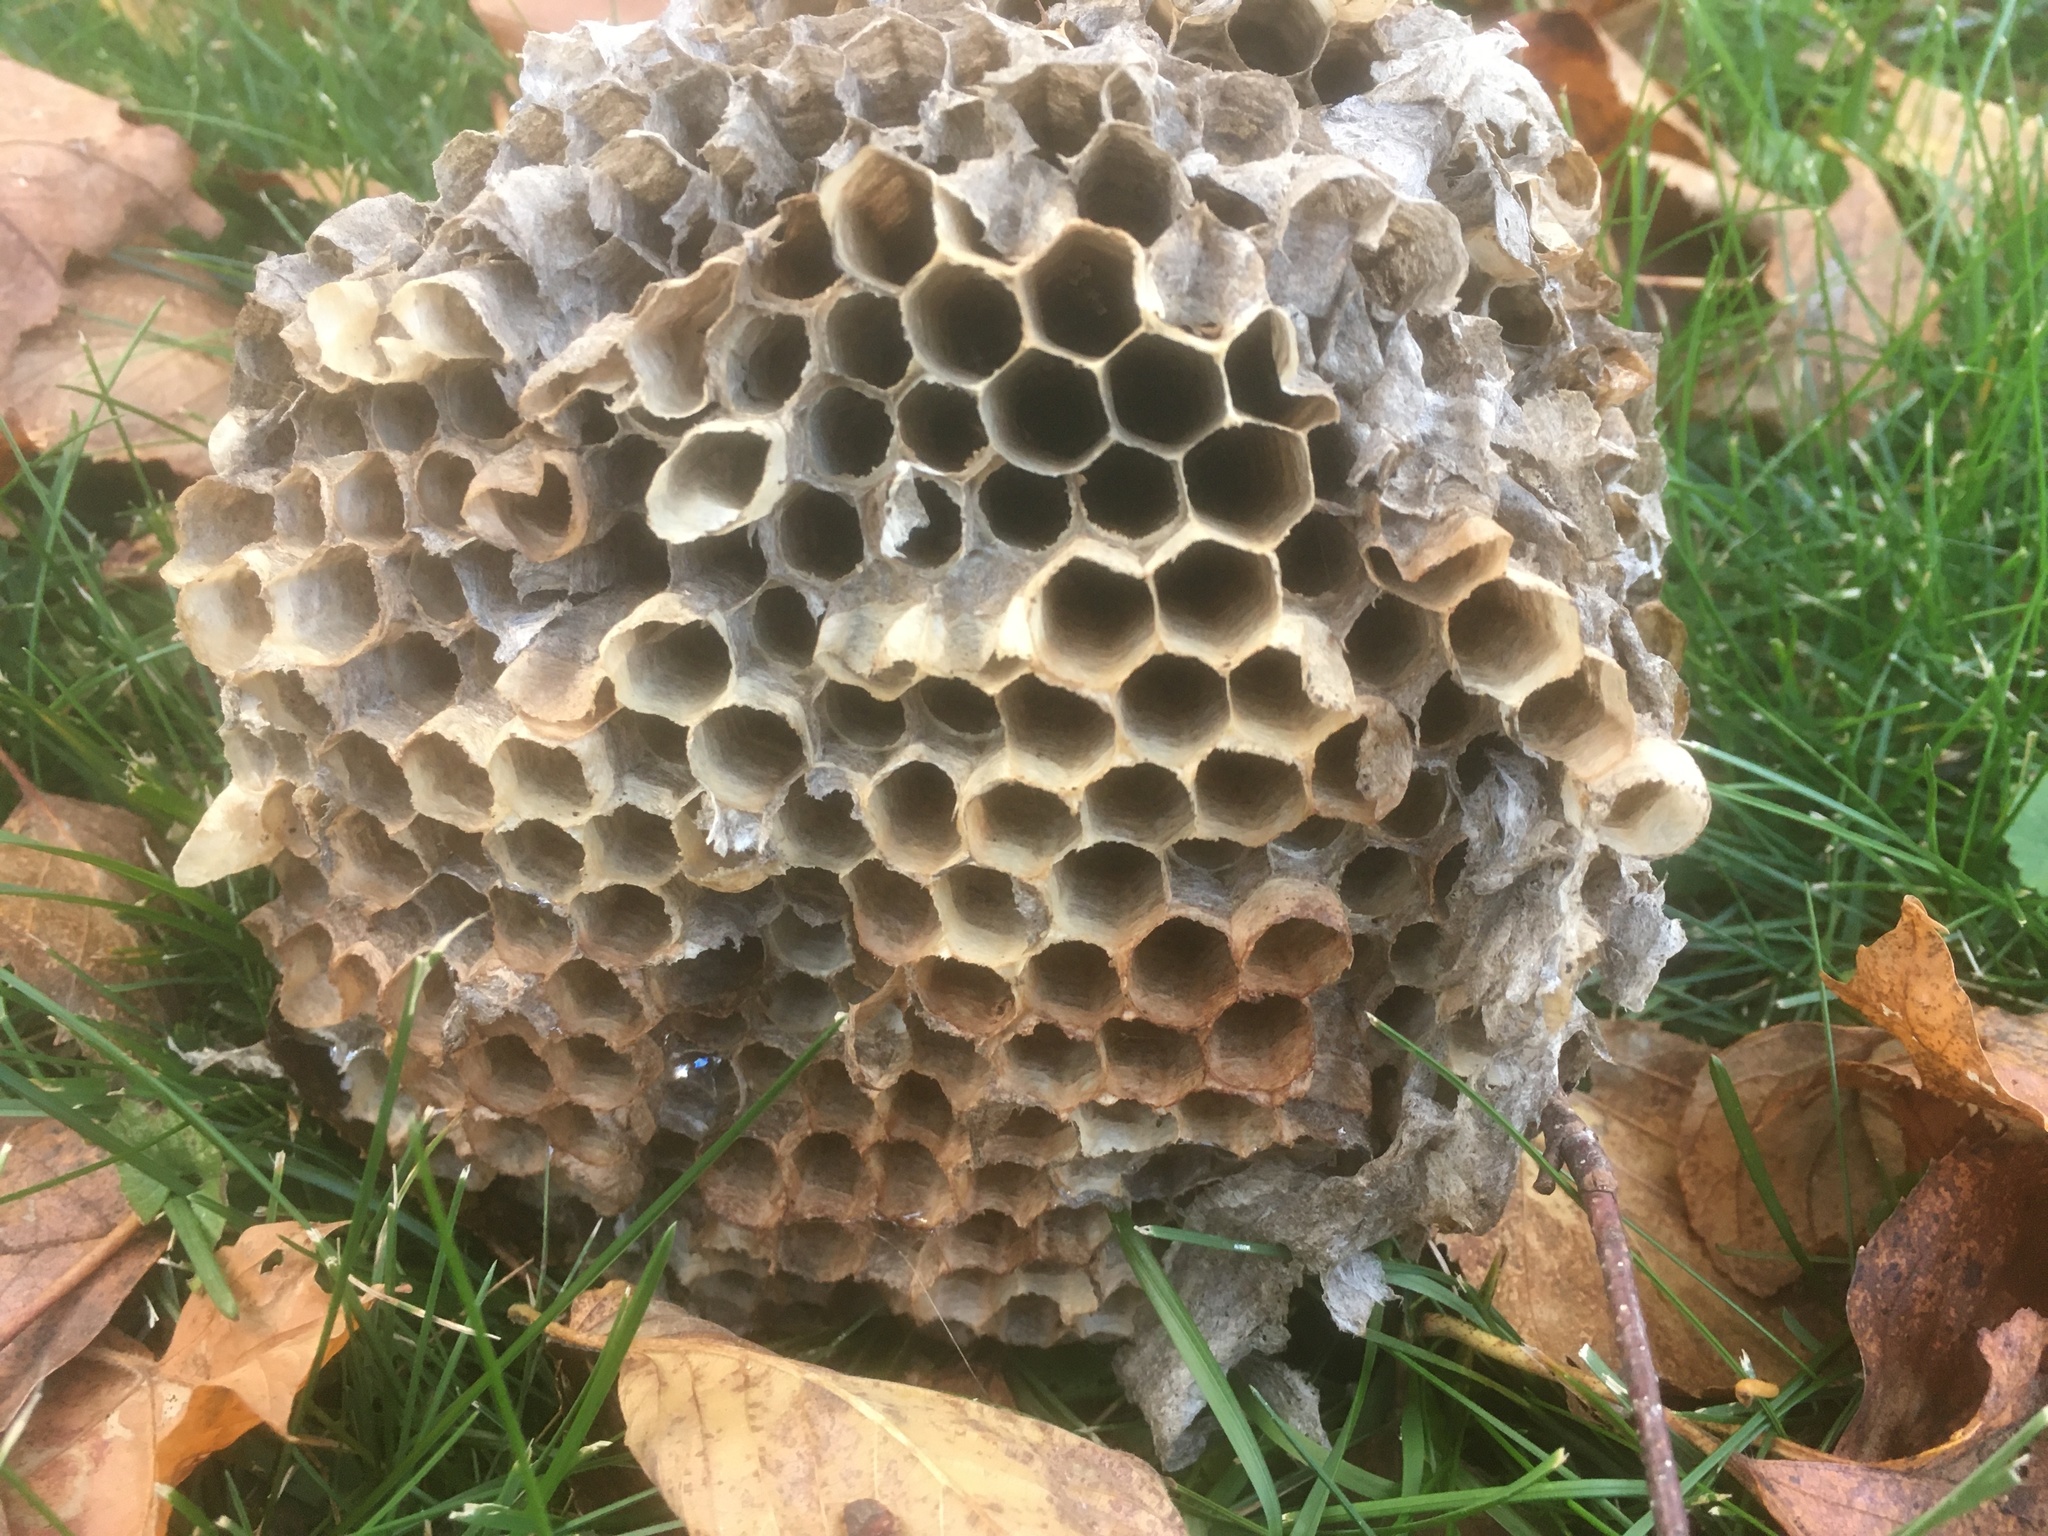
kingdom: Animalia
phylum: Arthropoda
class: Insecta
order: Hymenoptera
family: Vespidae
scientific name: Vespidae
